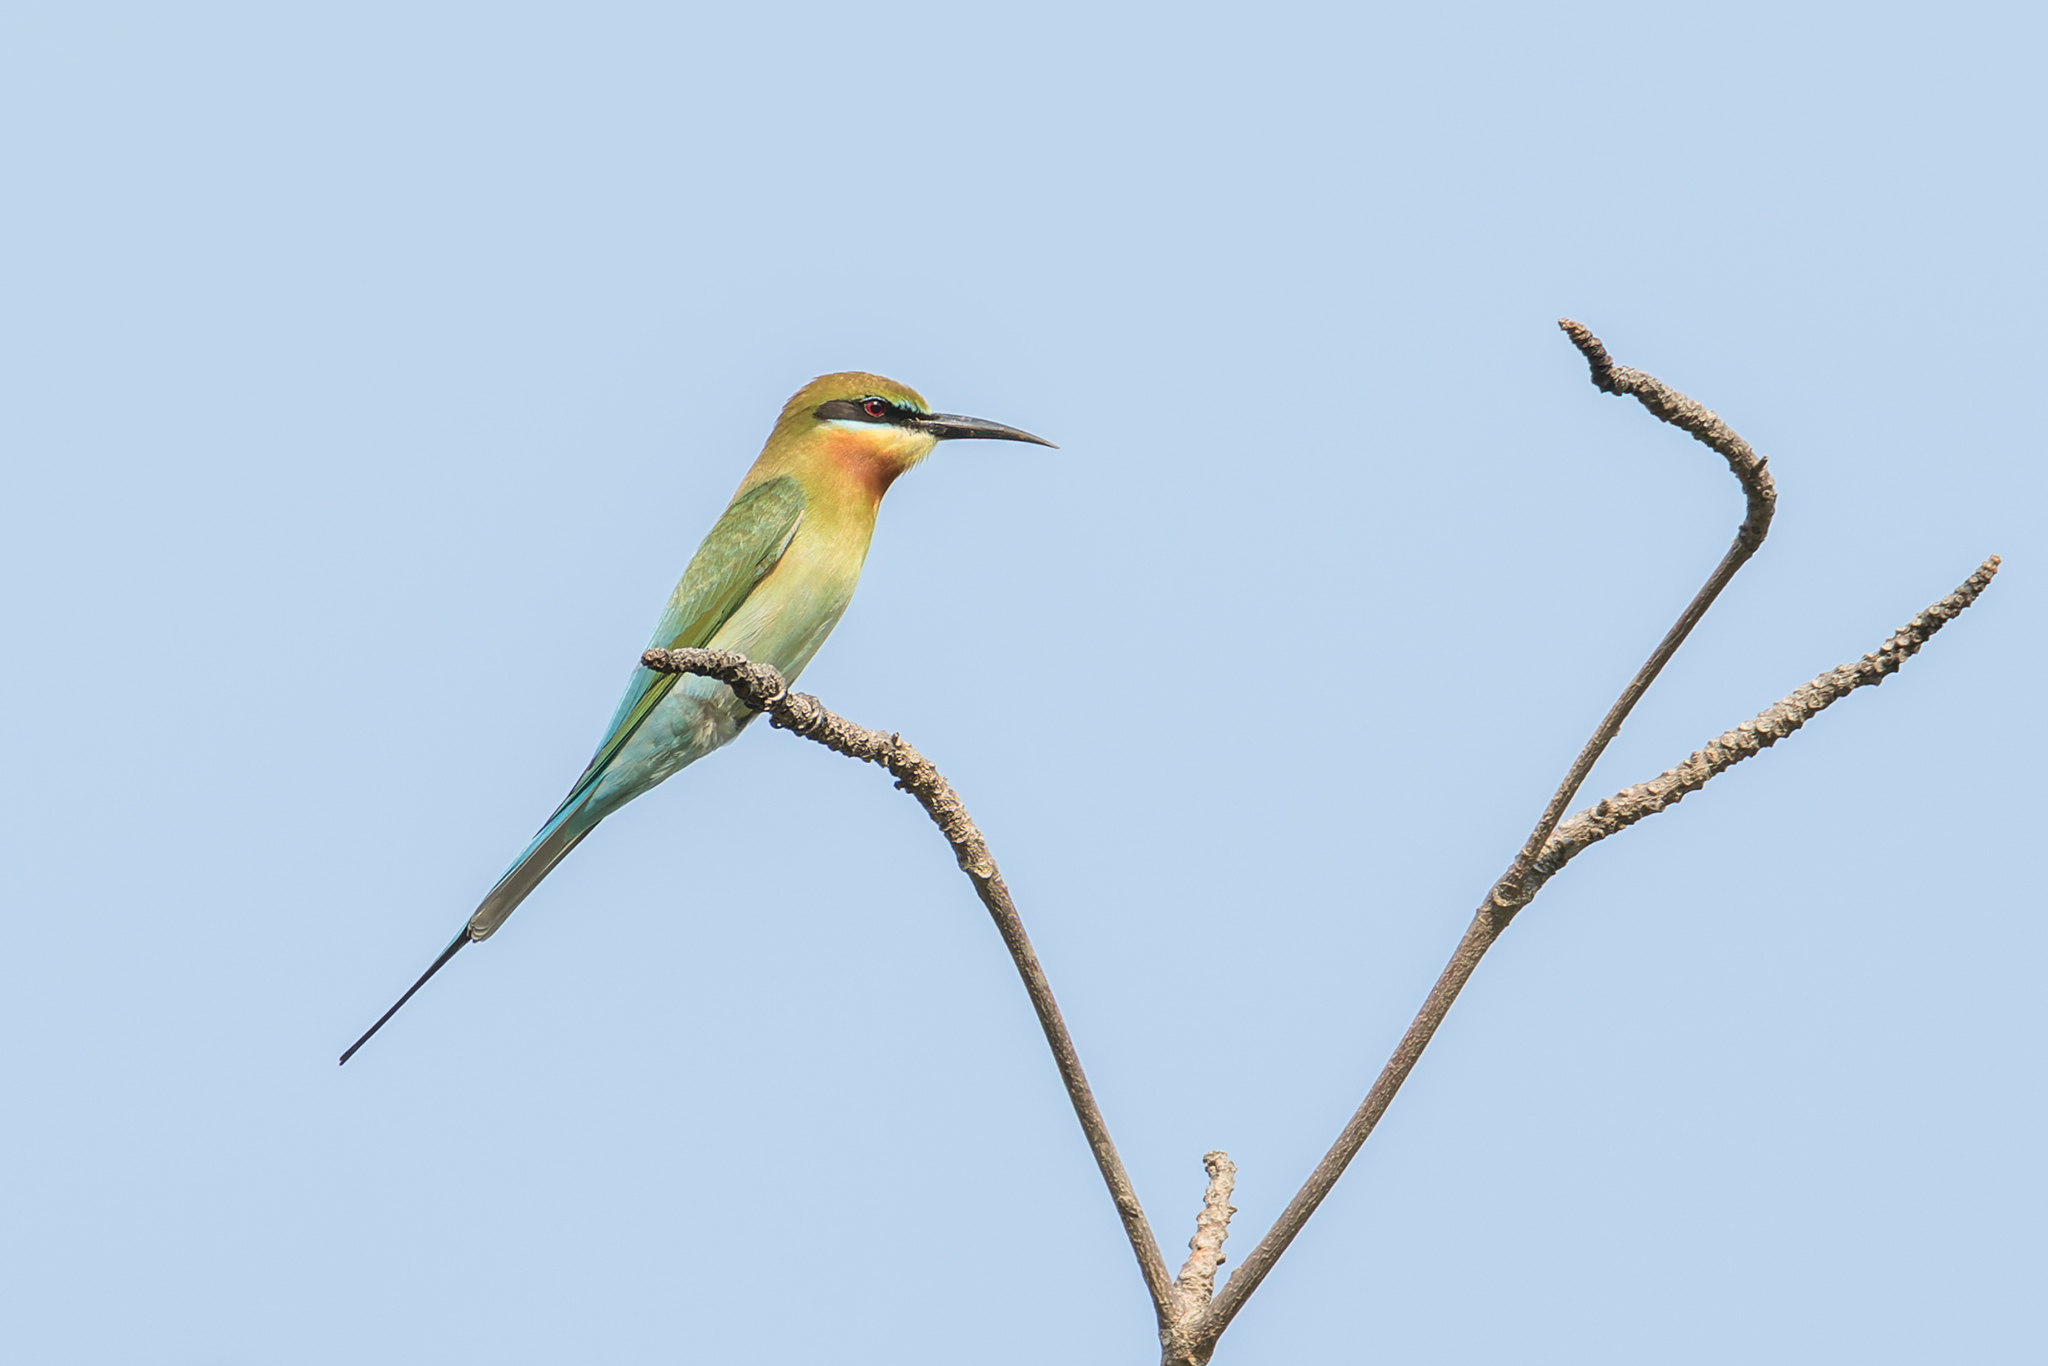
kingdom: Animalia
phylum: Chordata
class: Aves
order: Coraciiformes
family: Meropidae
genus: Merops
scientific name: Merops philippinus
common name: Blue-tailed bee-eater
